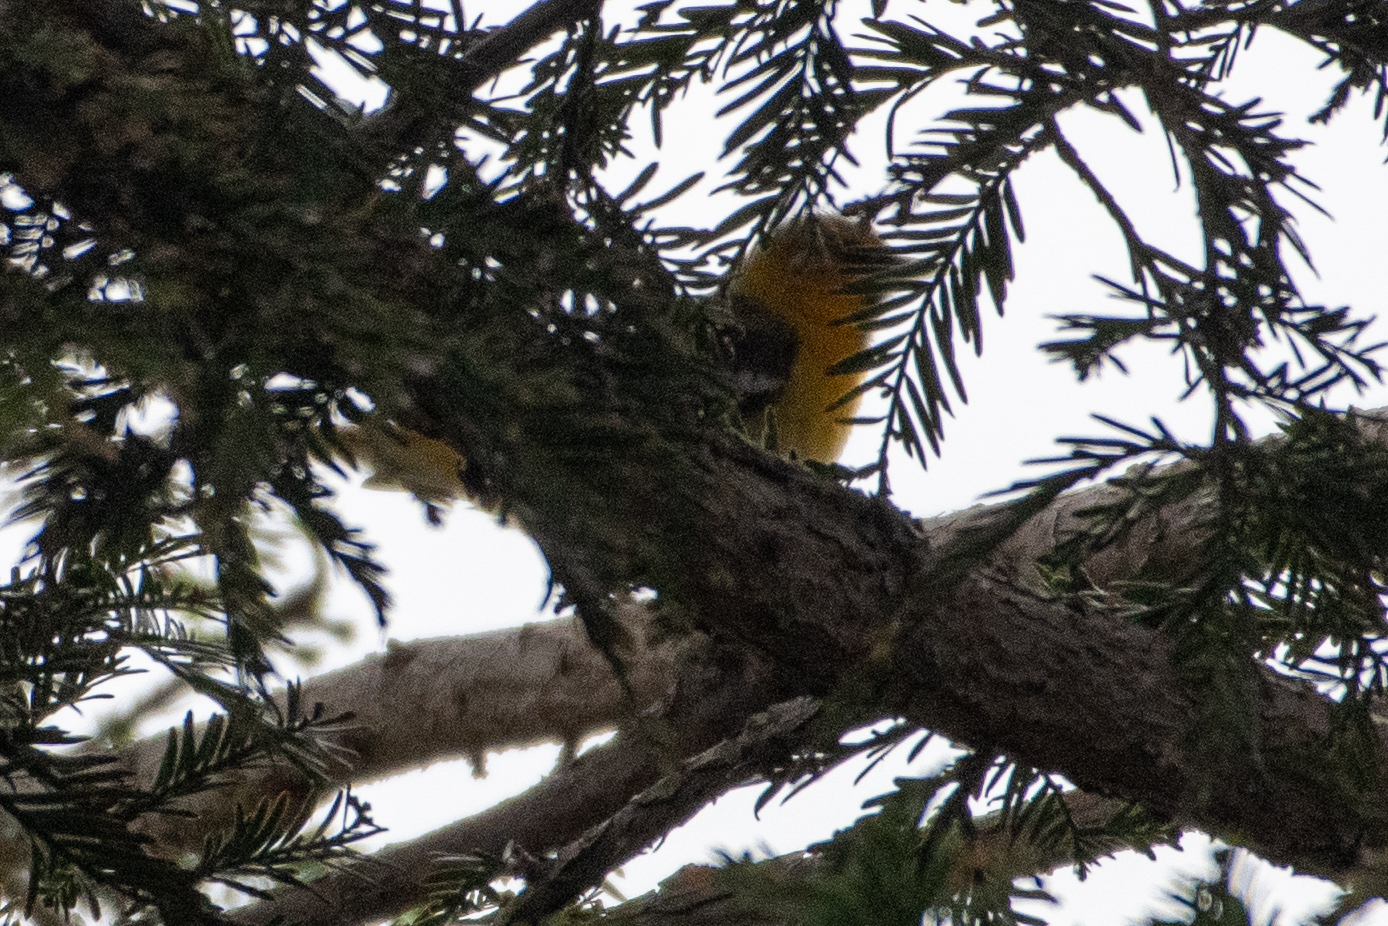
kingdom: Animalia
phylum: Chordata
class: Aves
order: Passeriformes
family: Cardinalidae
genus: Piranga
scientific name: Piranga ludoviciana
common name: Western tanager
